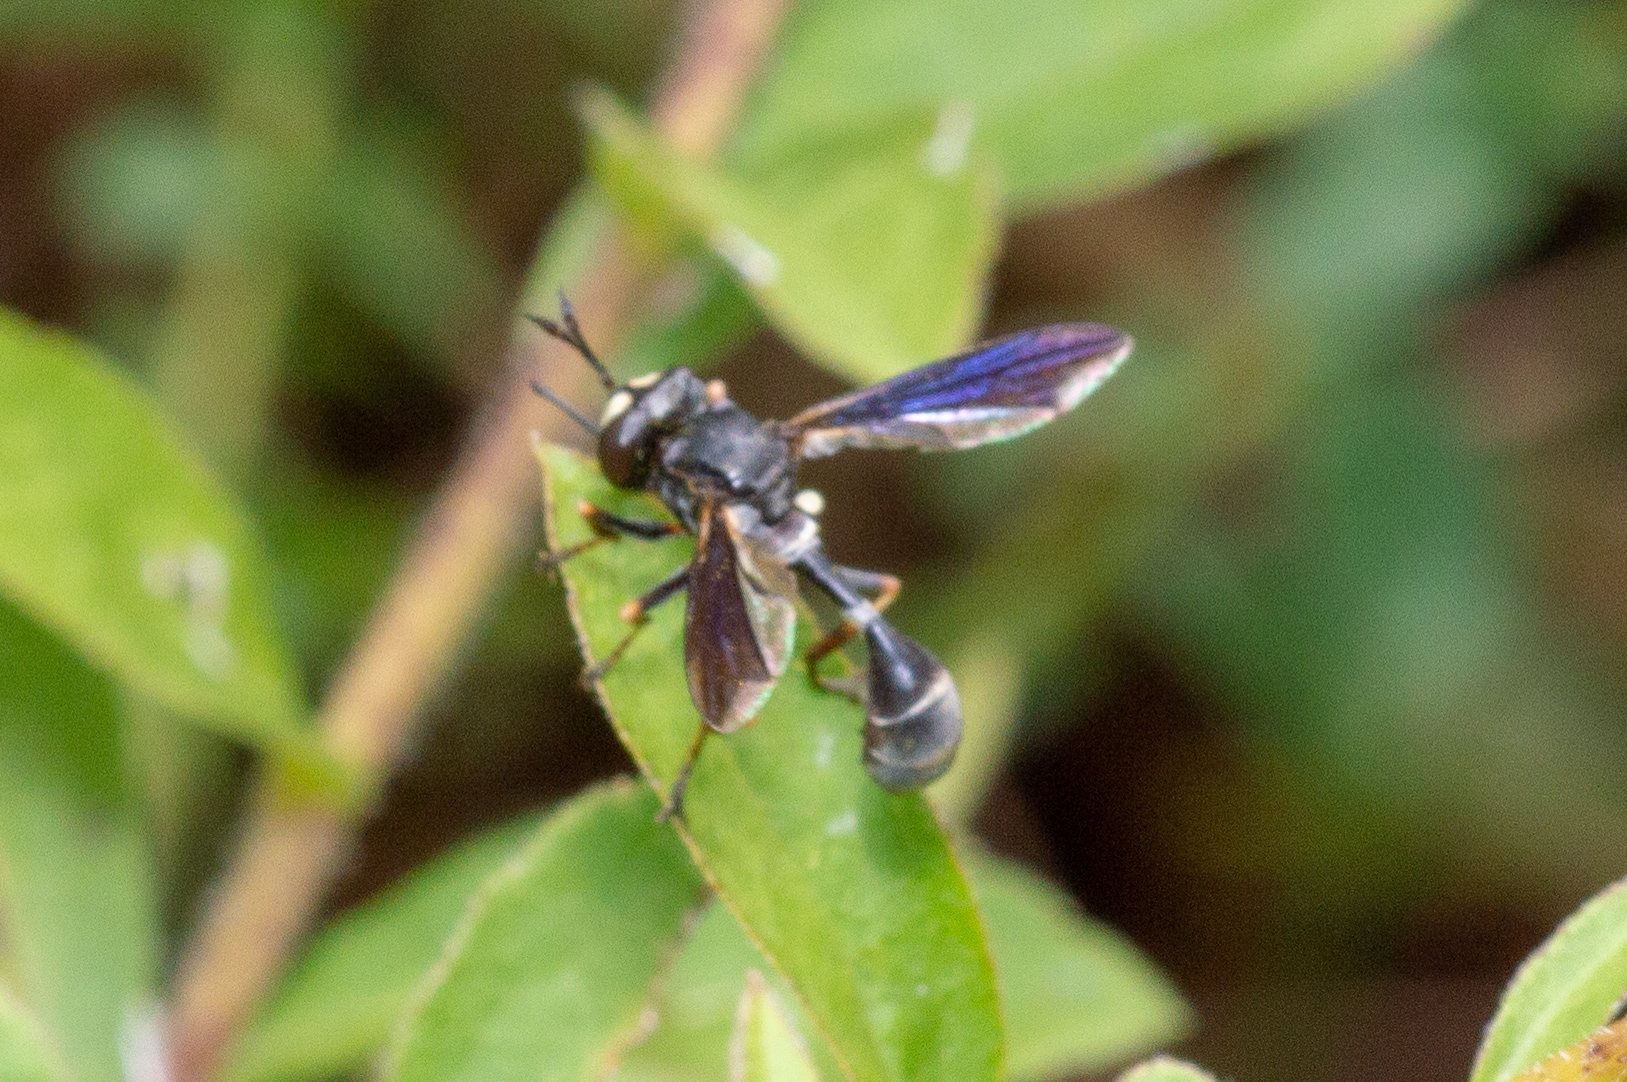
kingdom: Animalia
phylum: Arthropoda
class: Insecta
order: Diptera
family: Conopidae
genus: Physocephala
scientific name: Physocephala tibialis
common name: Common eastern physocephala
